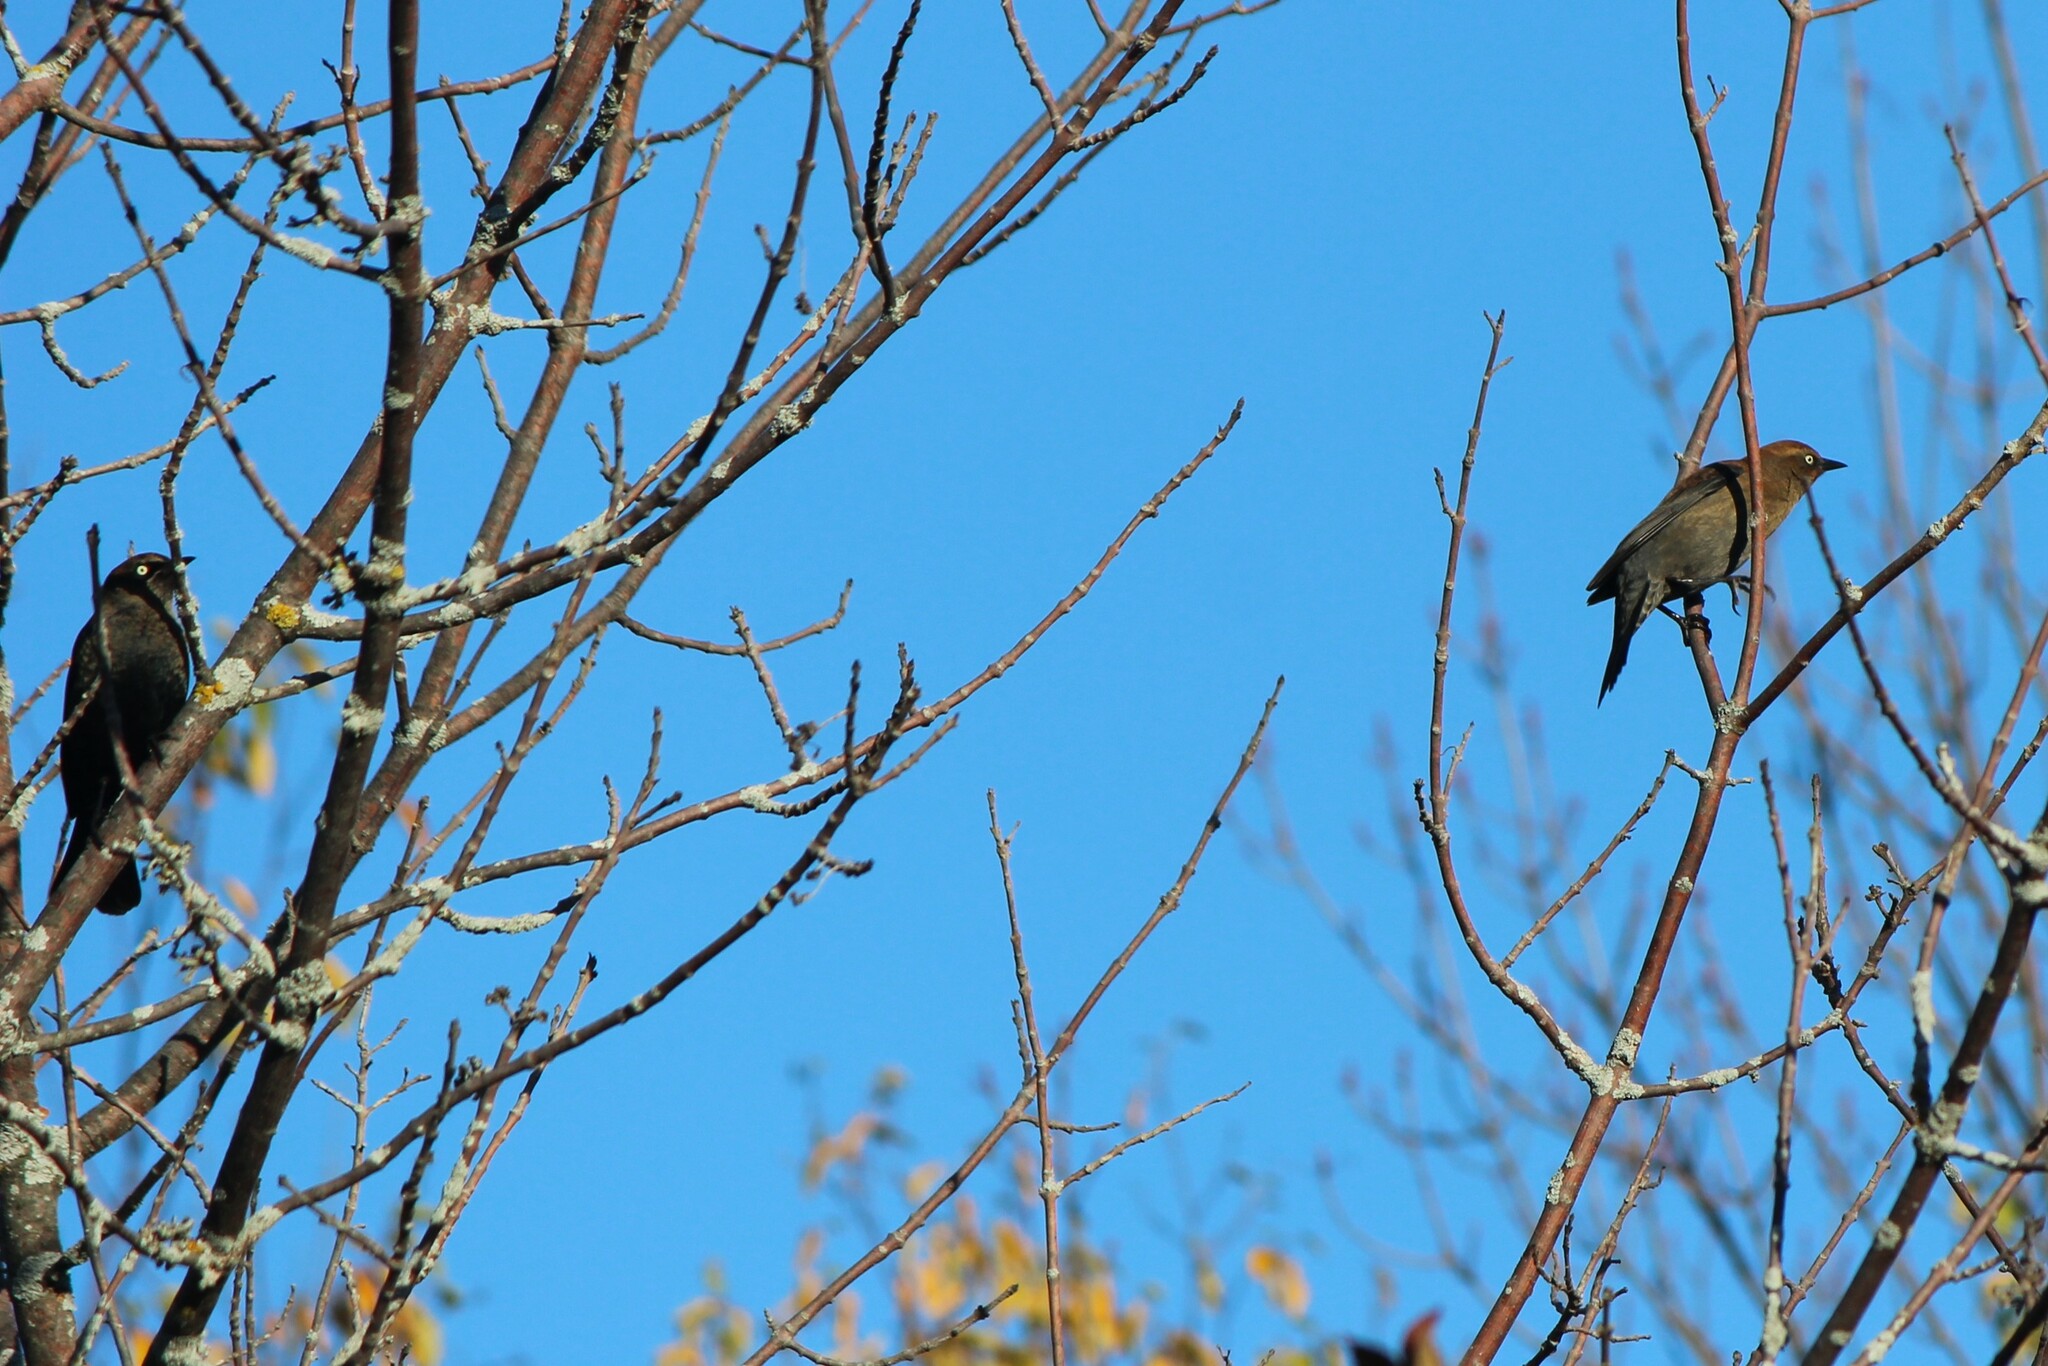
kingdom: Animalia
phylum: Chordata
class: Aves
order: Passeriformes
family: Icteridae
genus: Euphagus
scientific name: Euphagus carolinus
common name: Rusty blackbird
